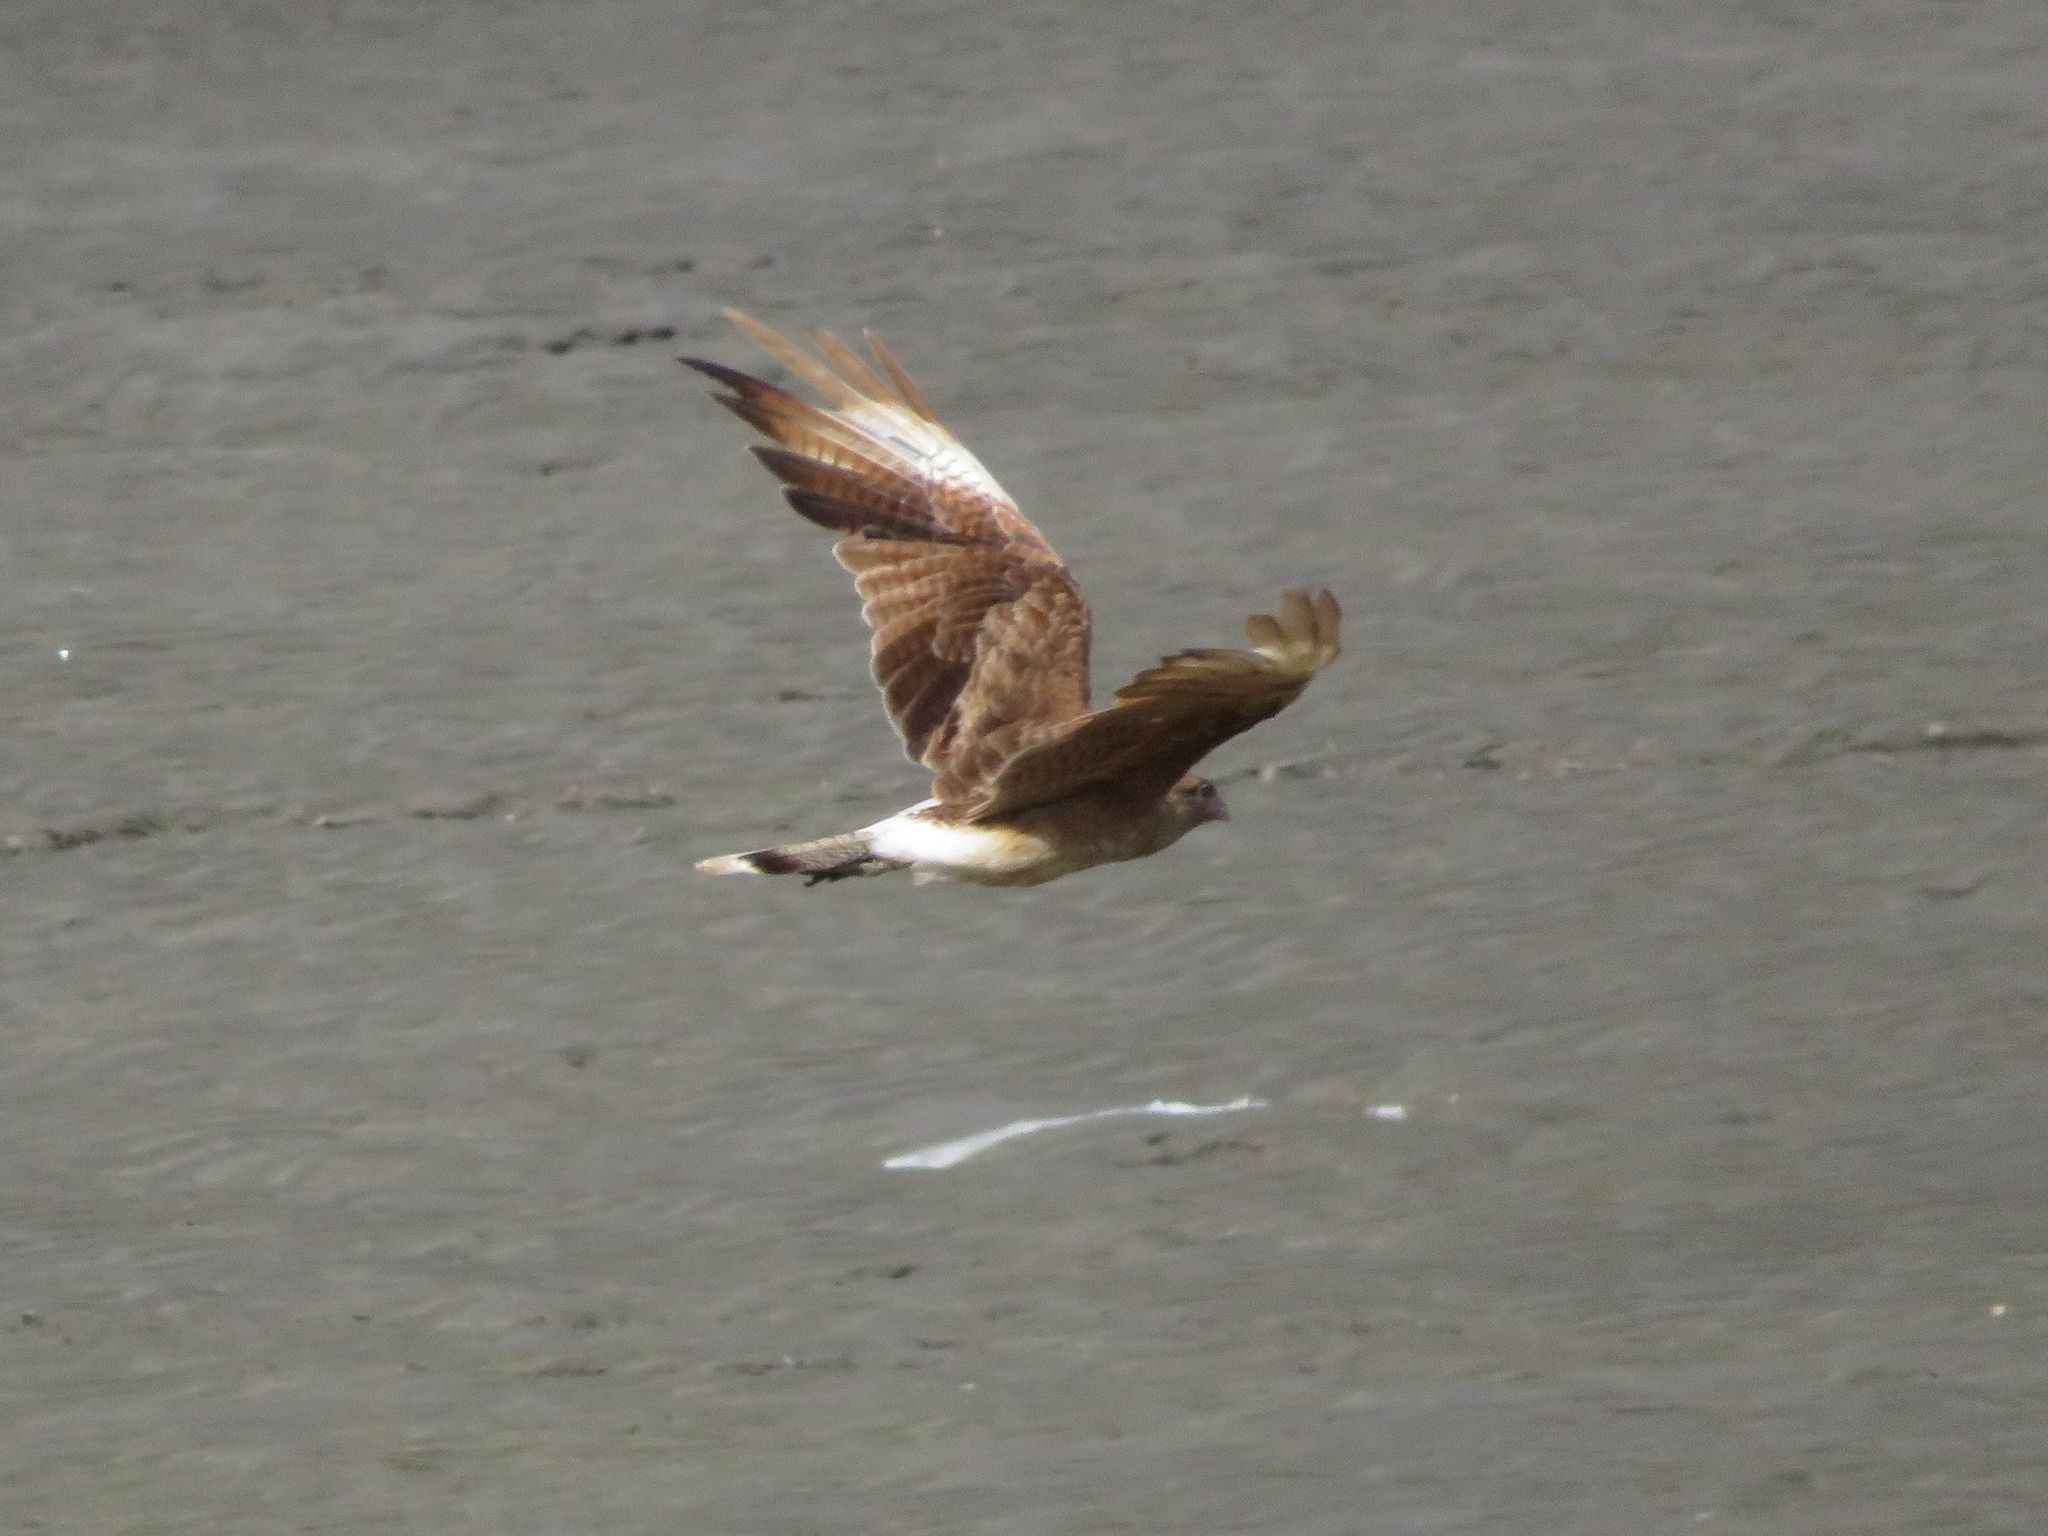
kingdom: Animalia
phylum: Chordata
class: Aves
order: Falconiformes
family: Falconidae
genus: Daptrius
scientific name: Daptrius
